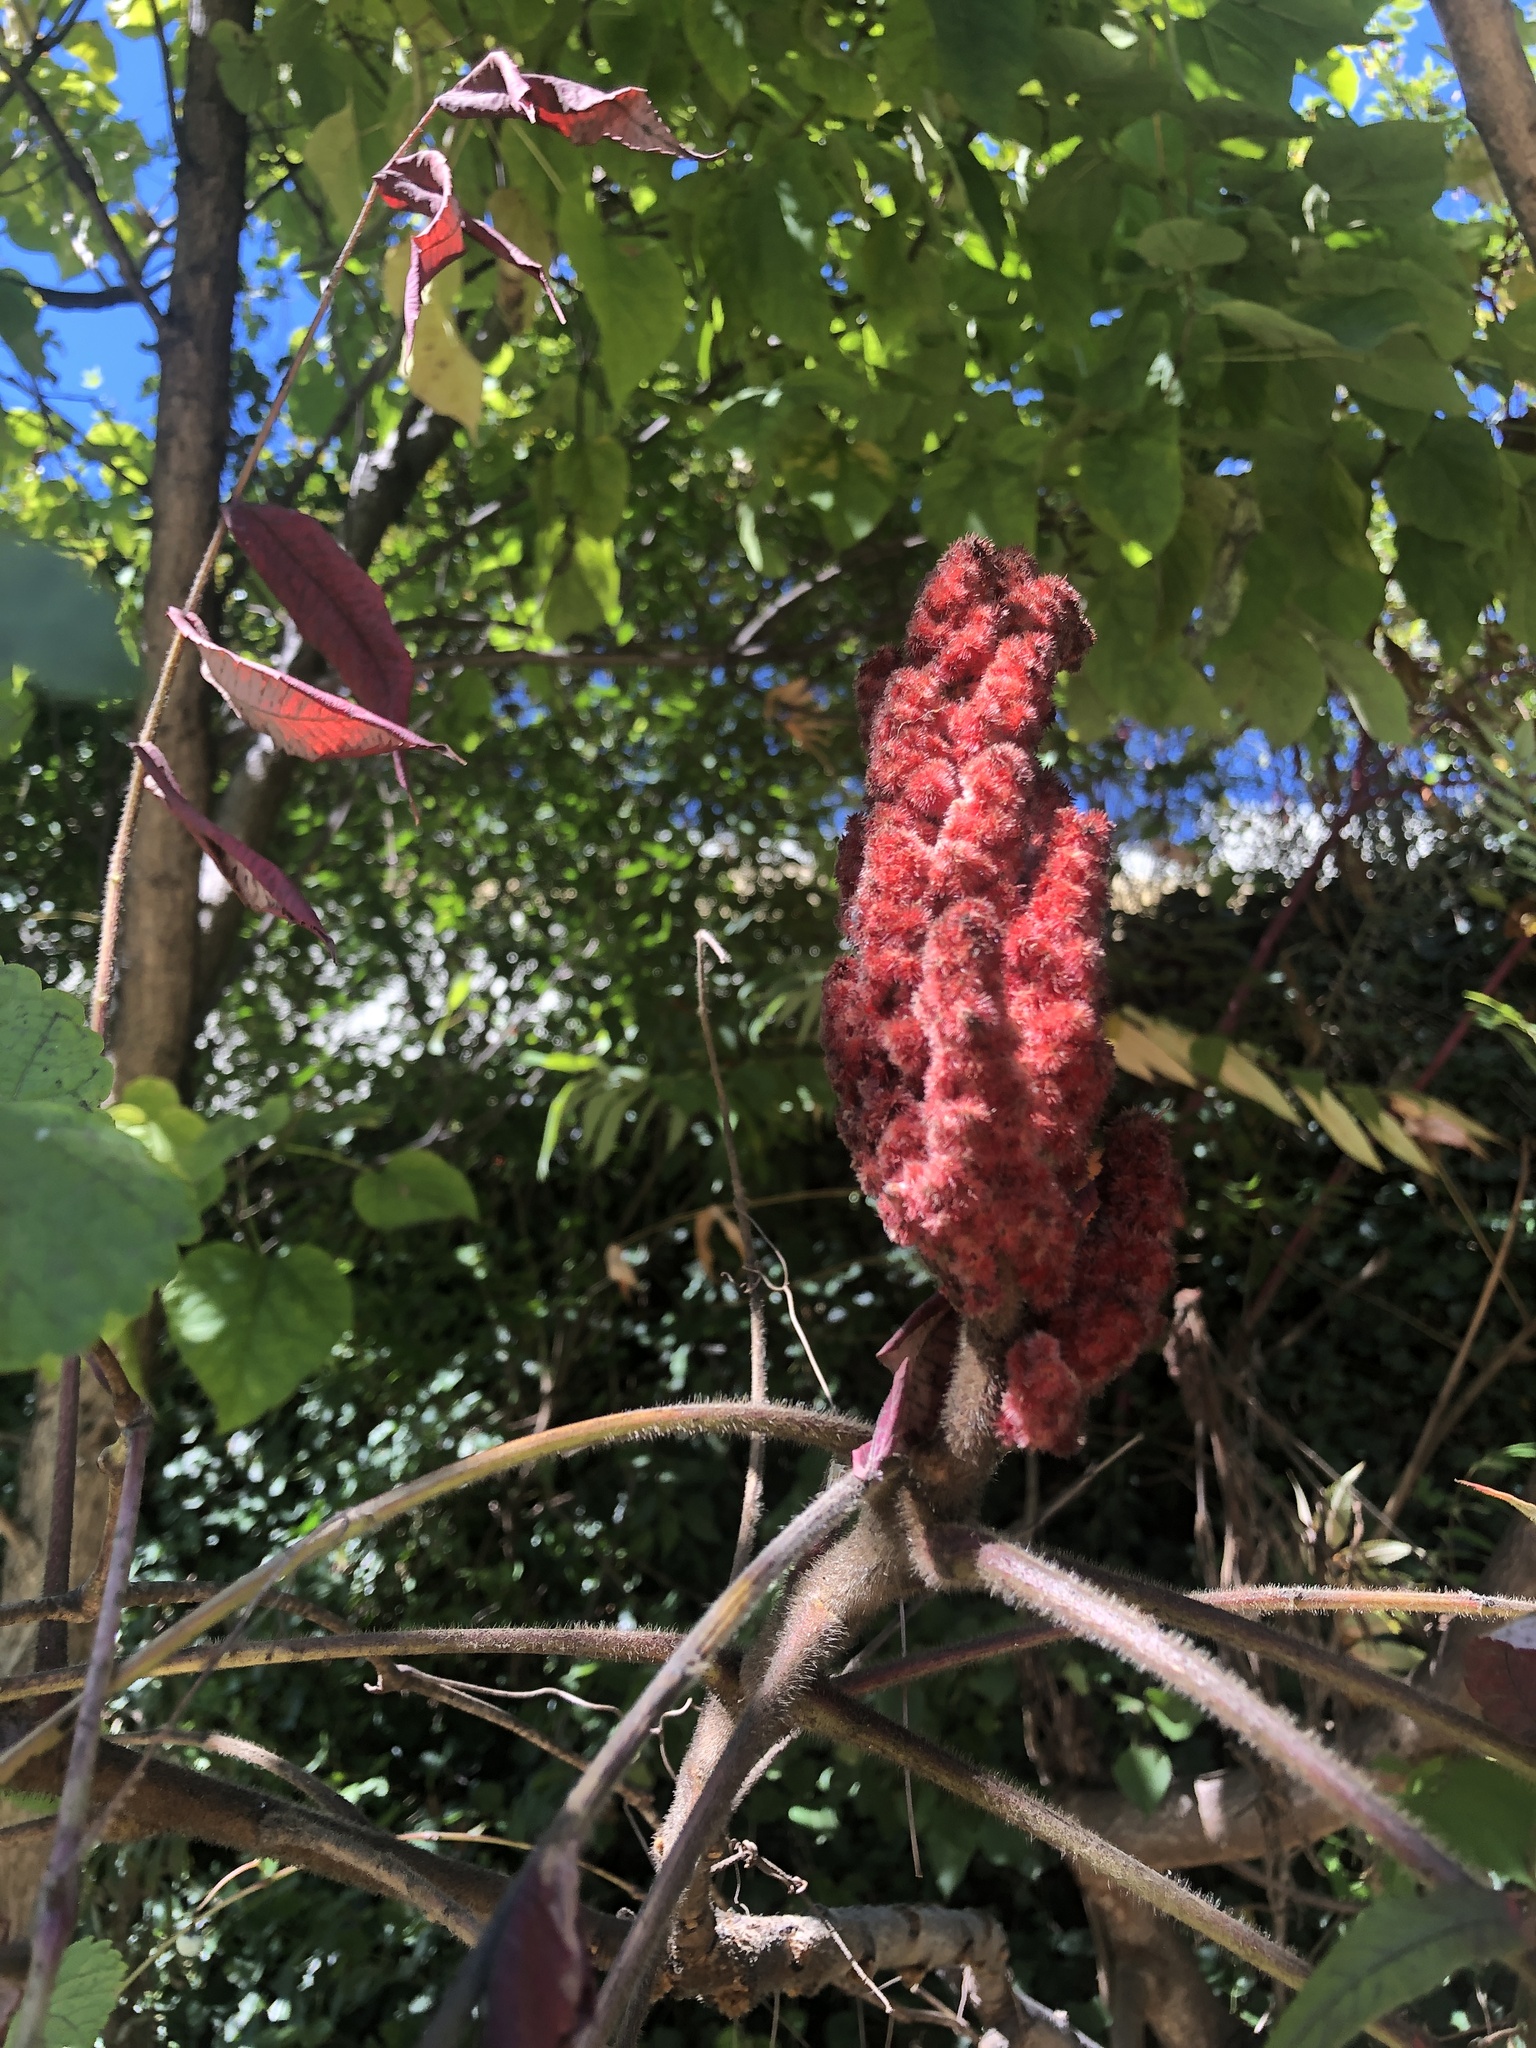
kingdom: Plantae
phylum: Tracheophyta
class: Magnoliopsida
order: Sapindales
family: Anacardiaceae
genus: Rhus
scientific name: Rhus typhina
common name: Staghorn sumac
